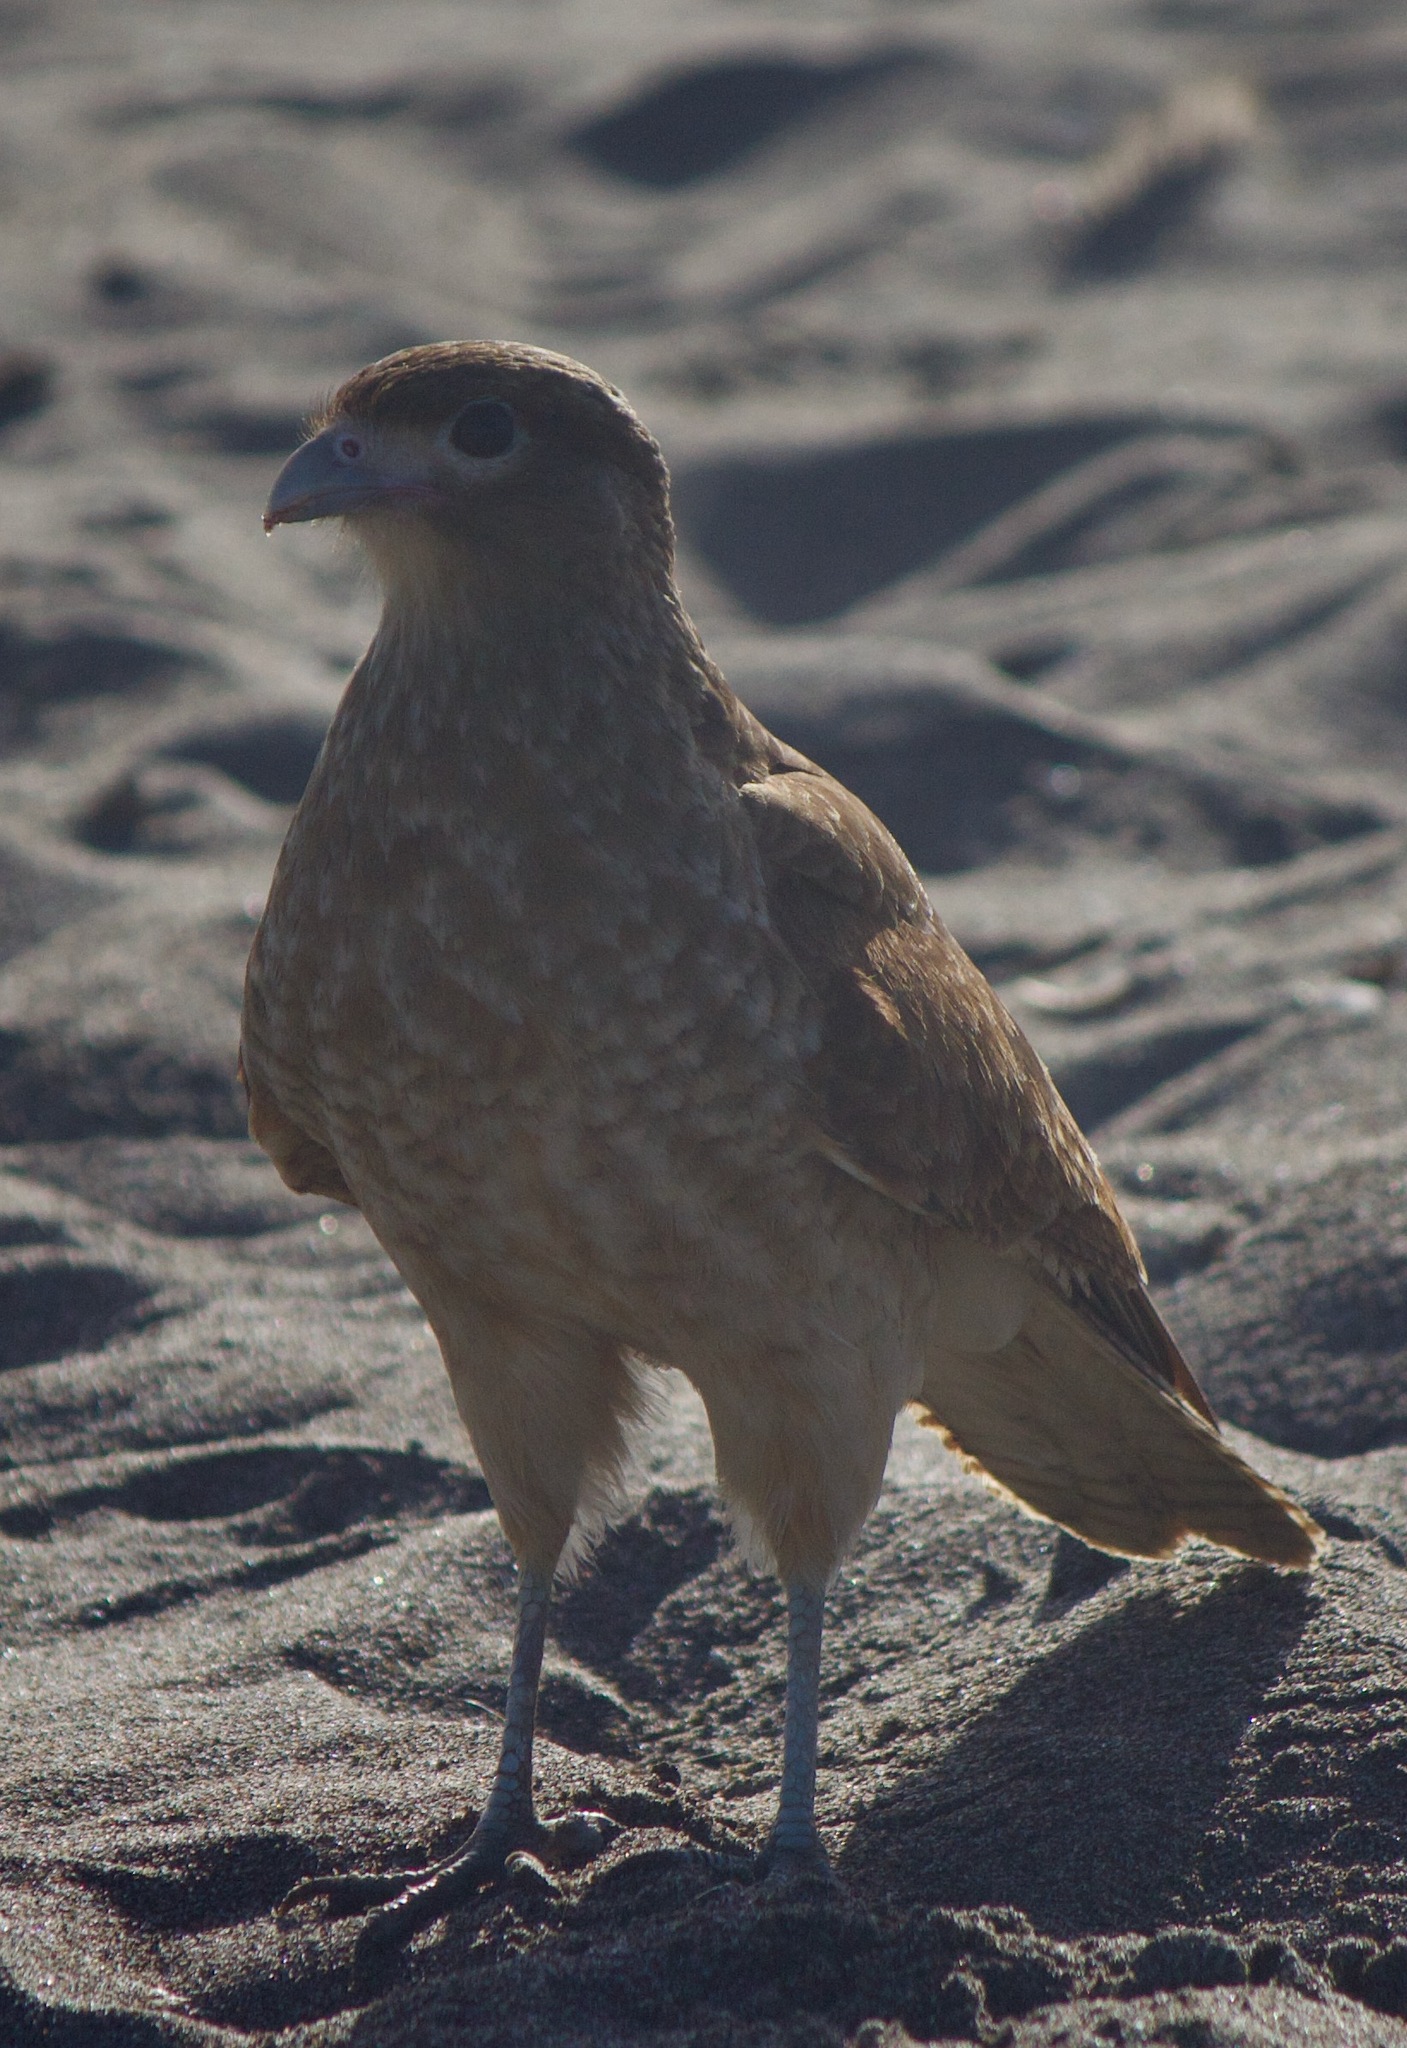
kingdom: Animalia
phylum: Chordata
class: Aves
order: Falconiformes
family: Falconidae
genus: Daptrius
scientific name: Daptrius
